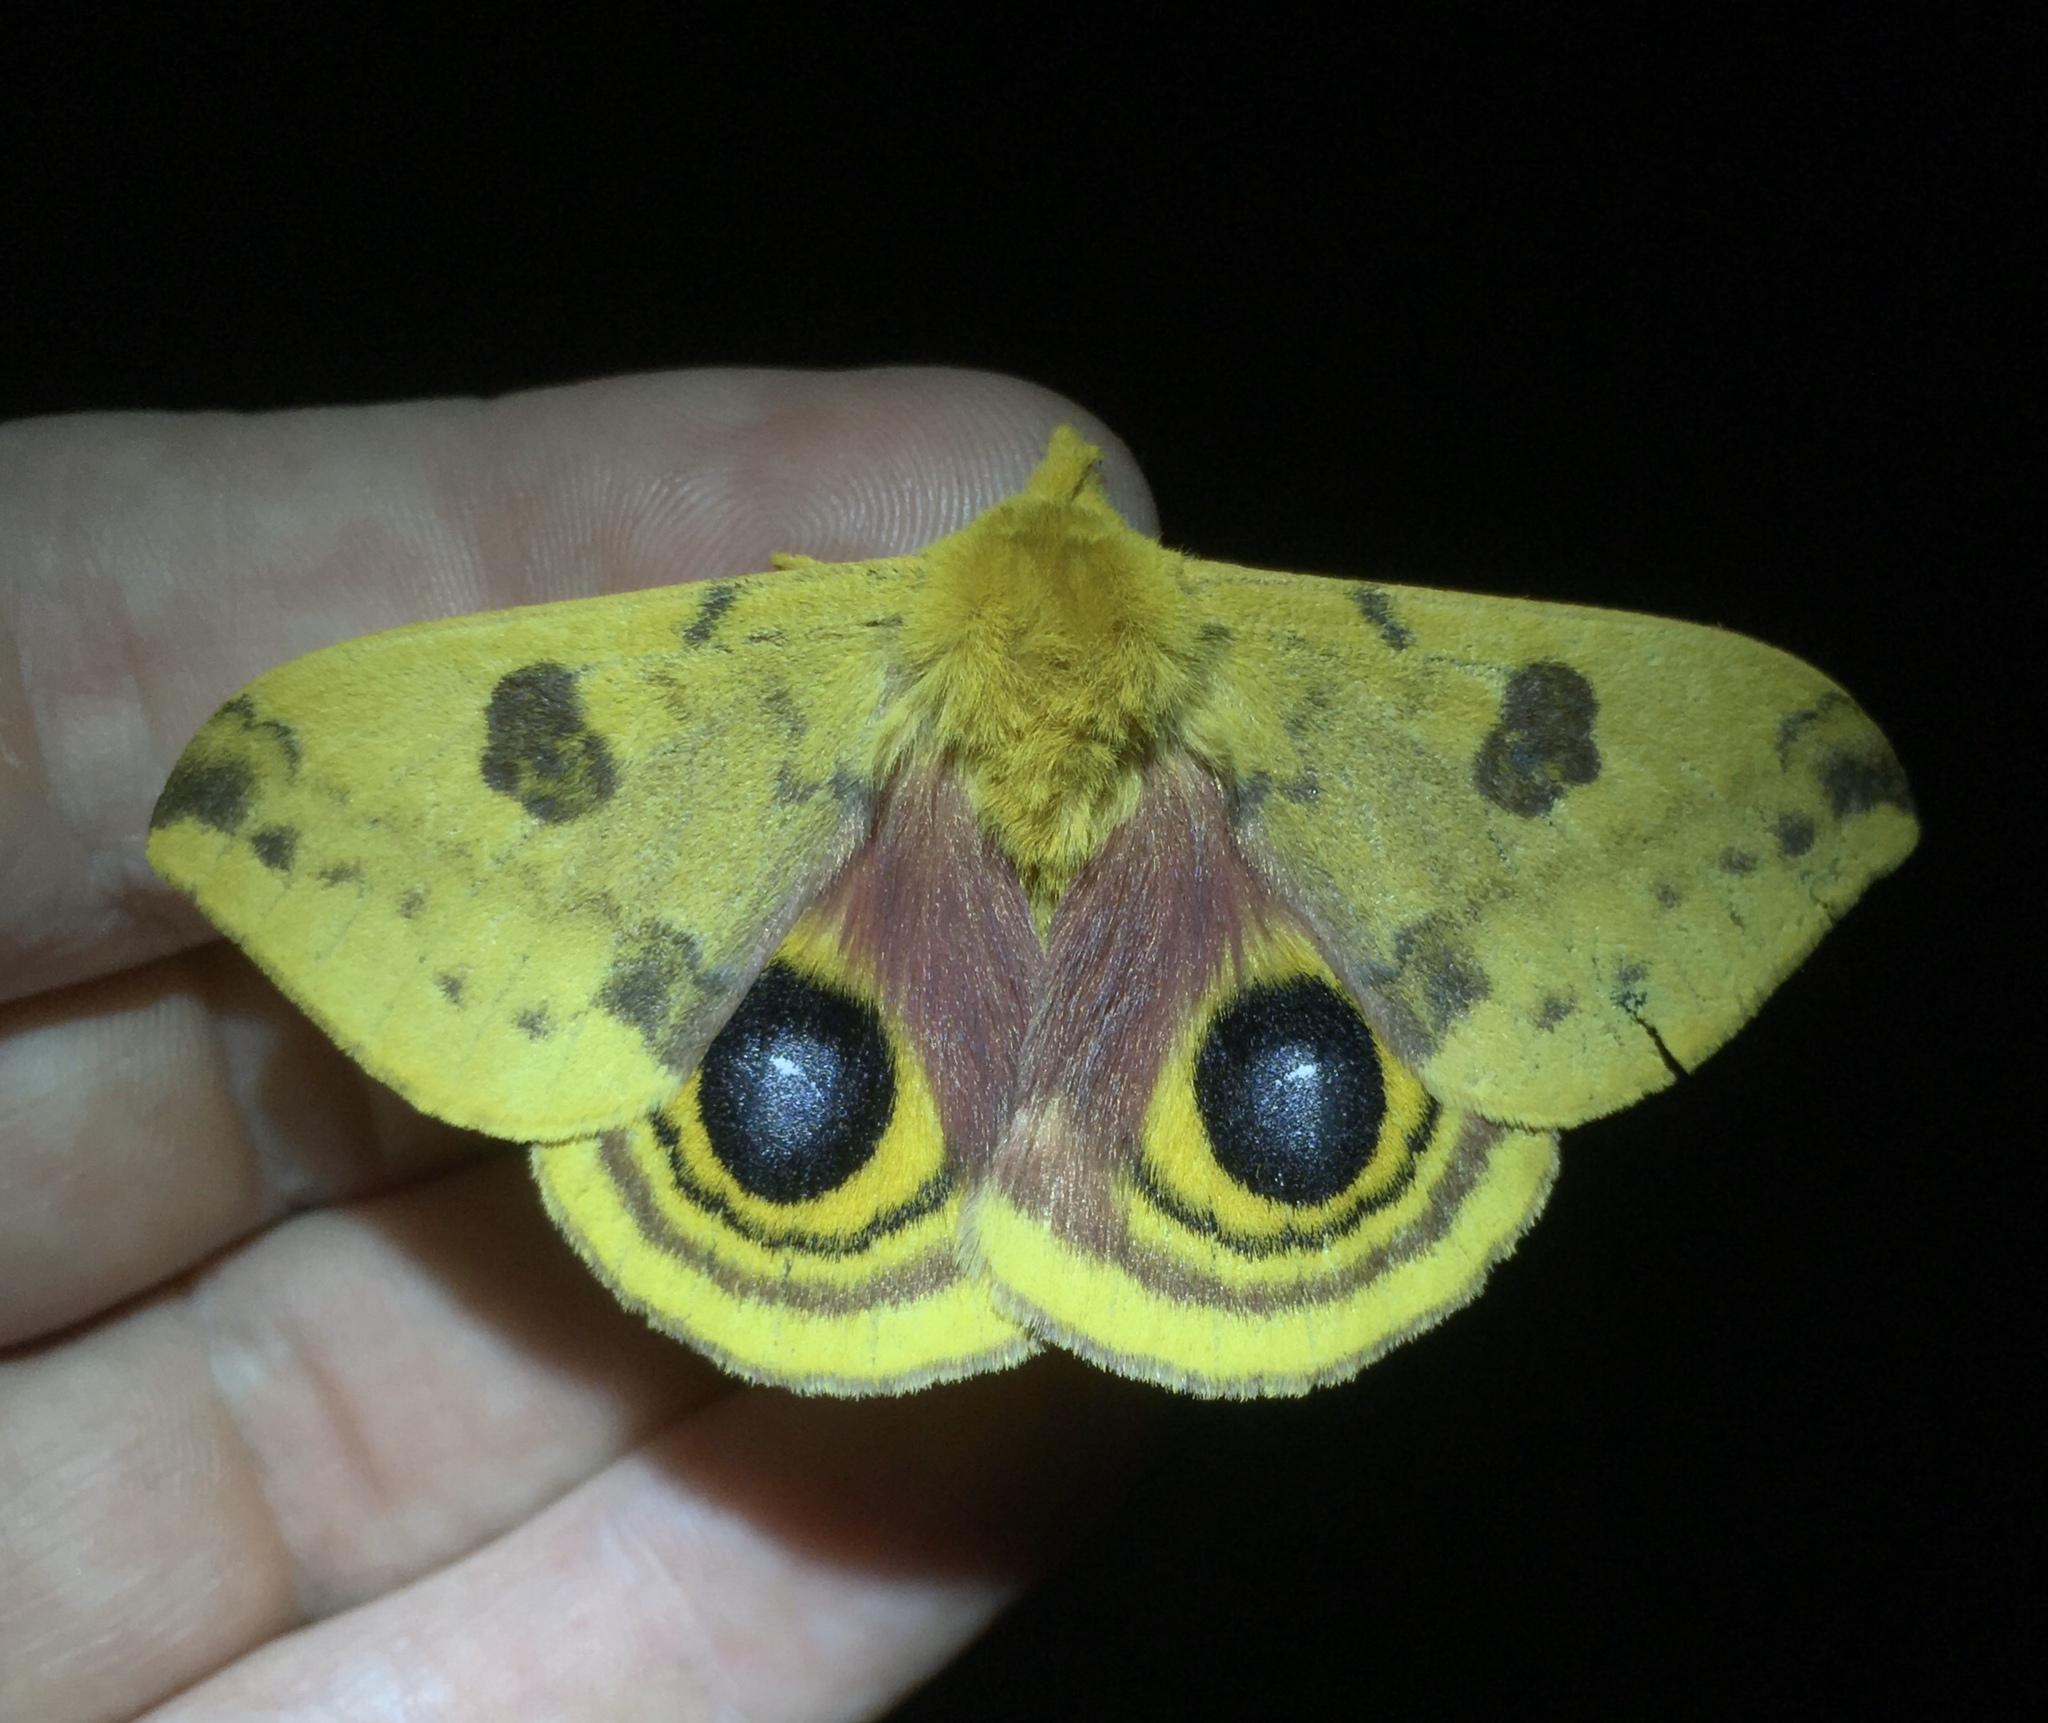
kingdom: Animalia
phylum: Arthropoda
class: Insecta
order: Lepidoptera
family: Saturniidae
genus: Automeris
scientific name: Automeris io
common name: Io moth
